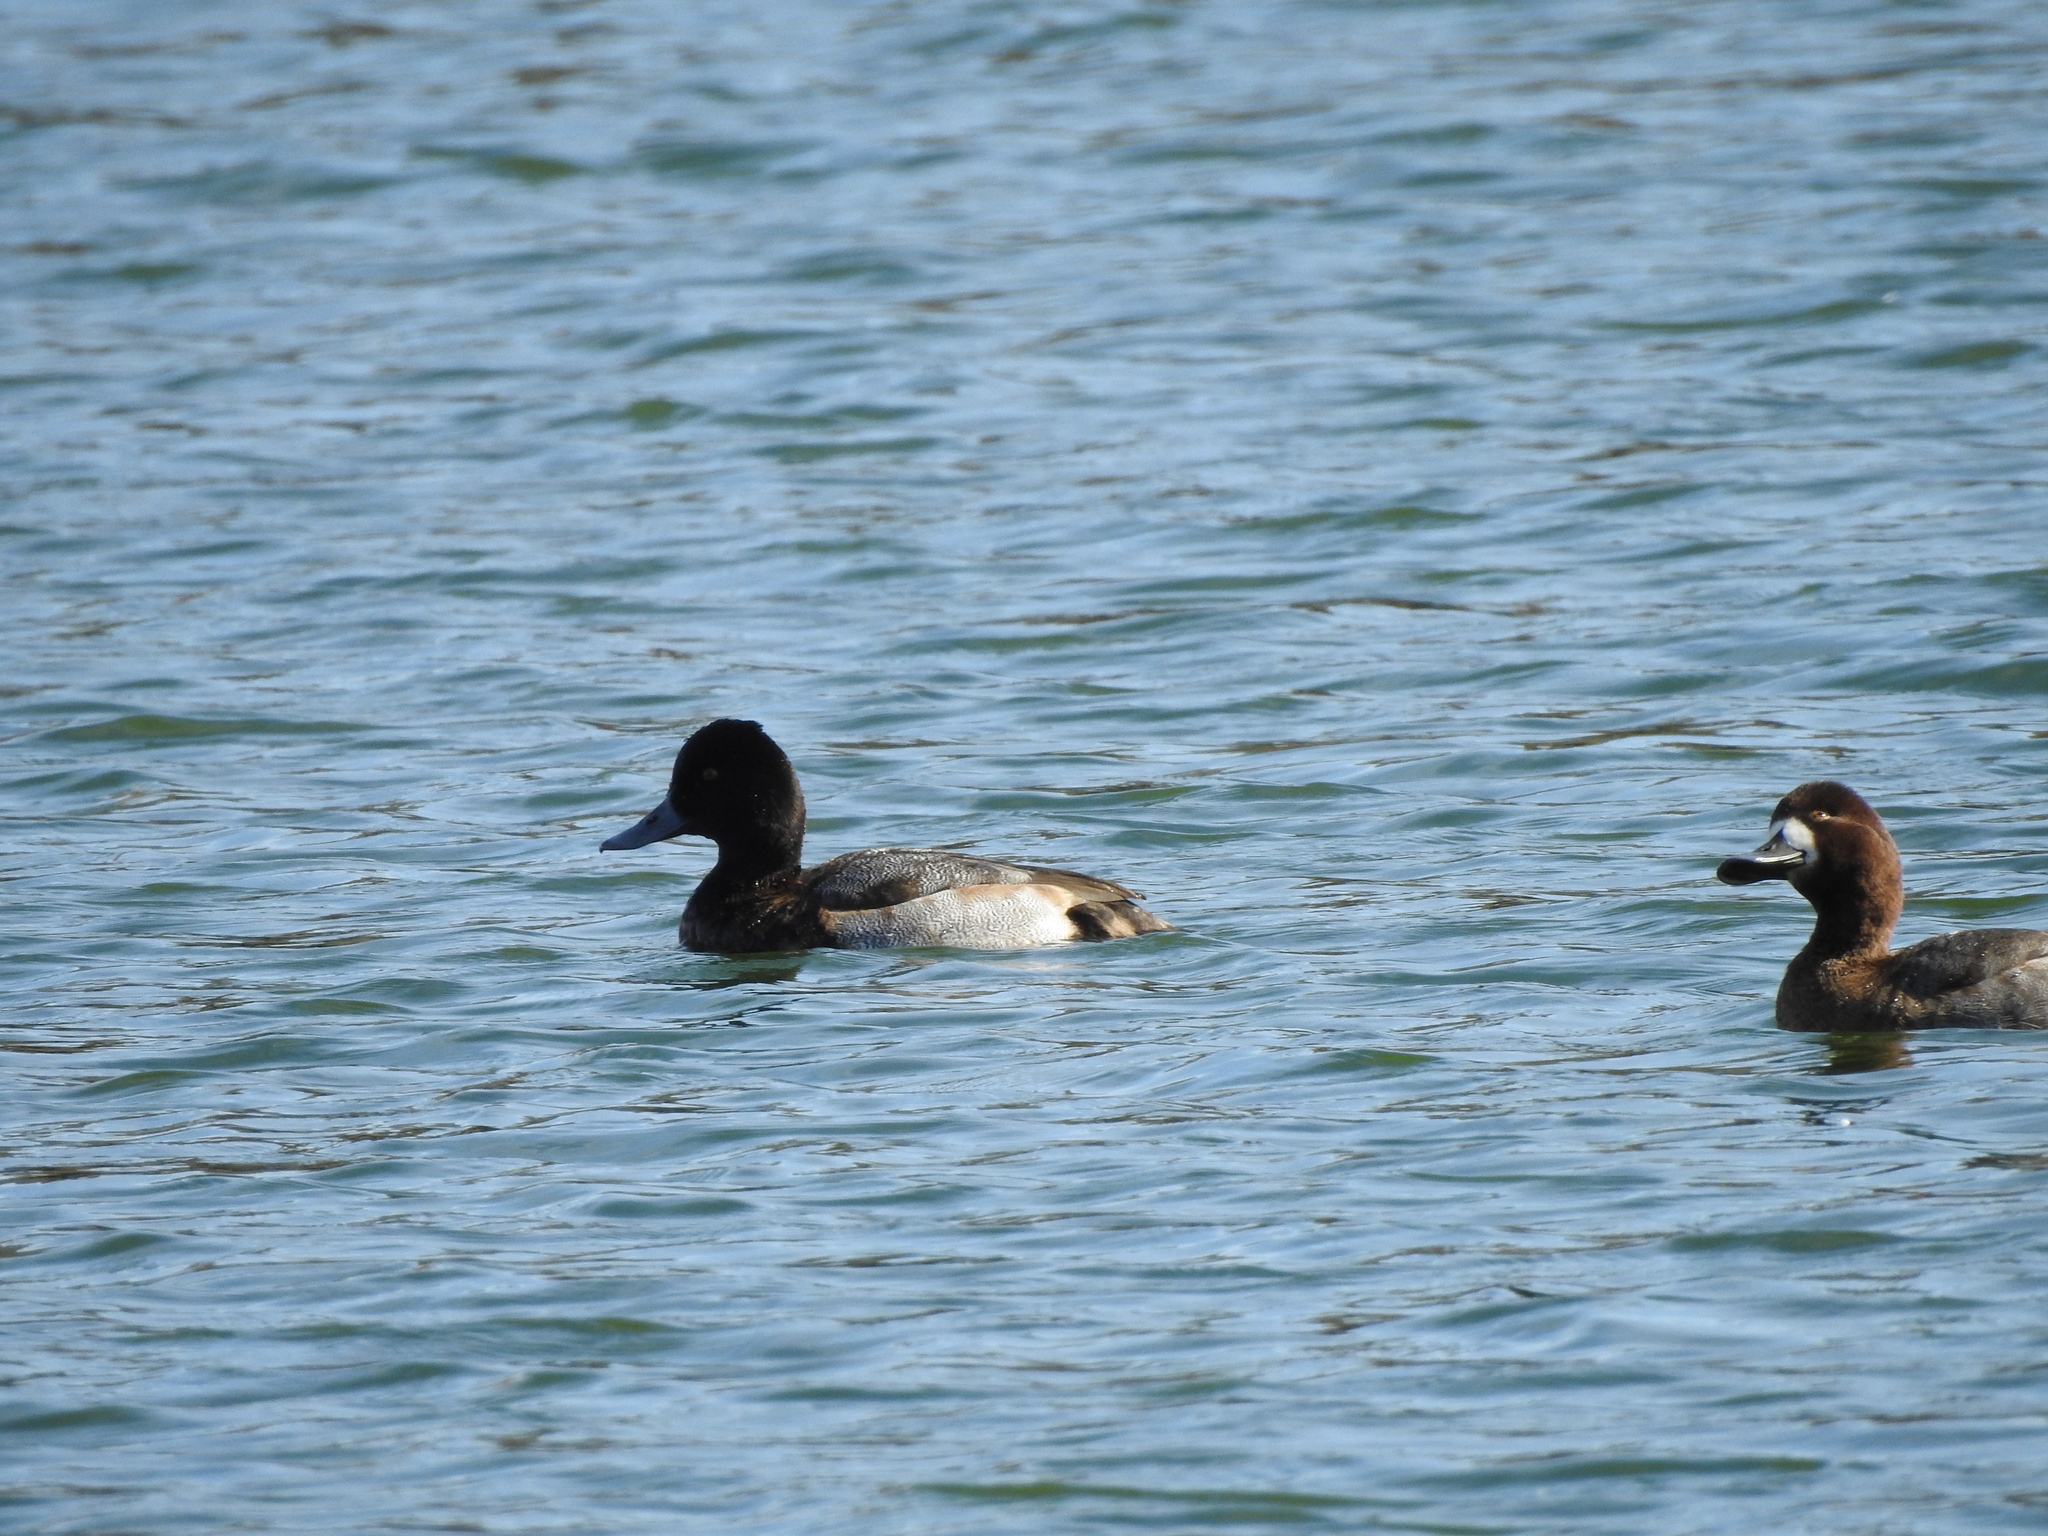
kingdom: Animalia
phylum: Chordata
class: Aves
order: Anseriformes
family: Anatidae
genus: Aythya
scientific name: Aythya affinis
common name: Lesser scaup
